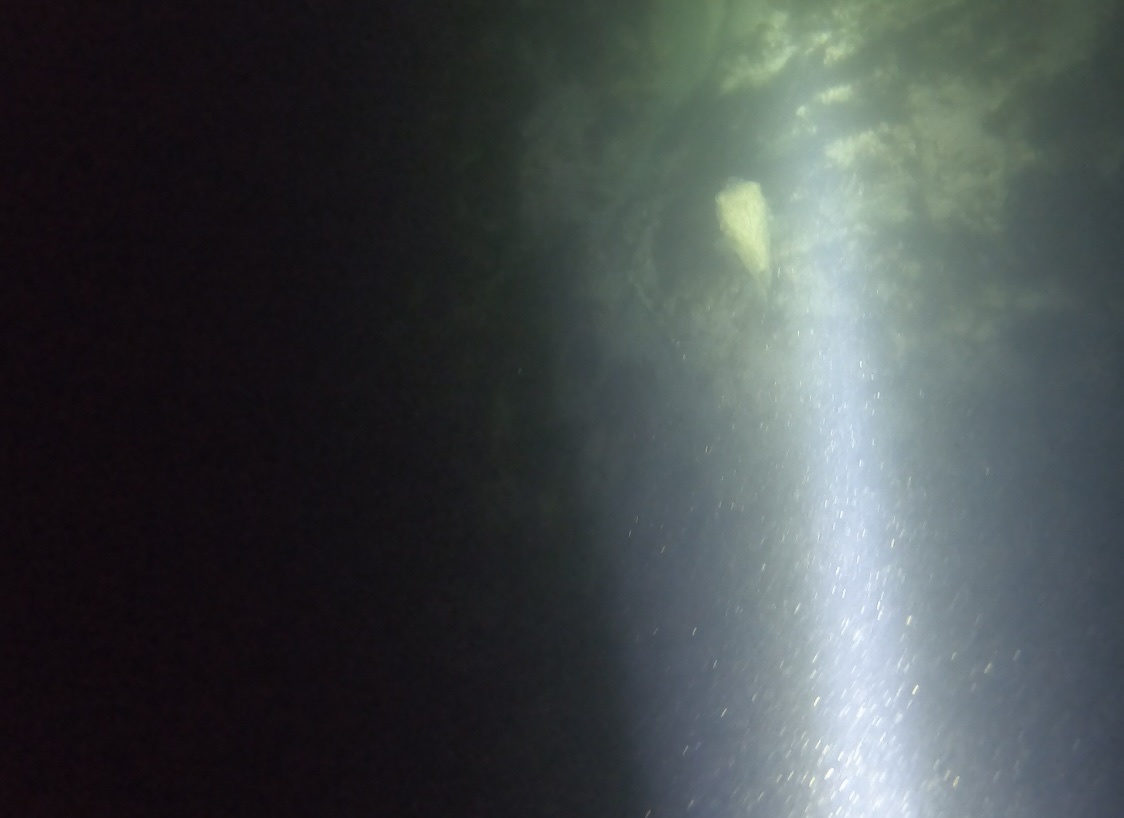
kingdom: Animalia
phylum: Chordata
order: Tetraodontiformes
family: Diodontidae
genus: Diodon
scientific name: Diodon nicthemerus
